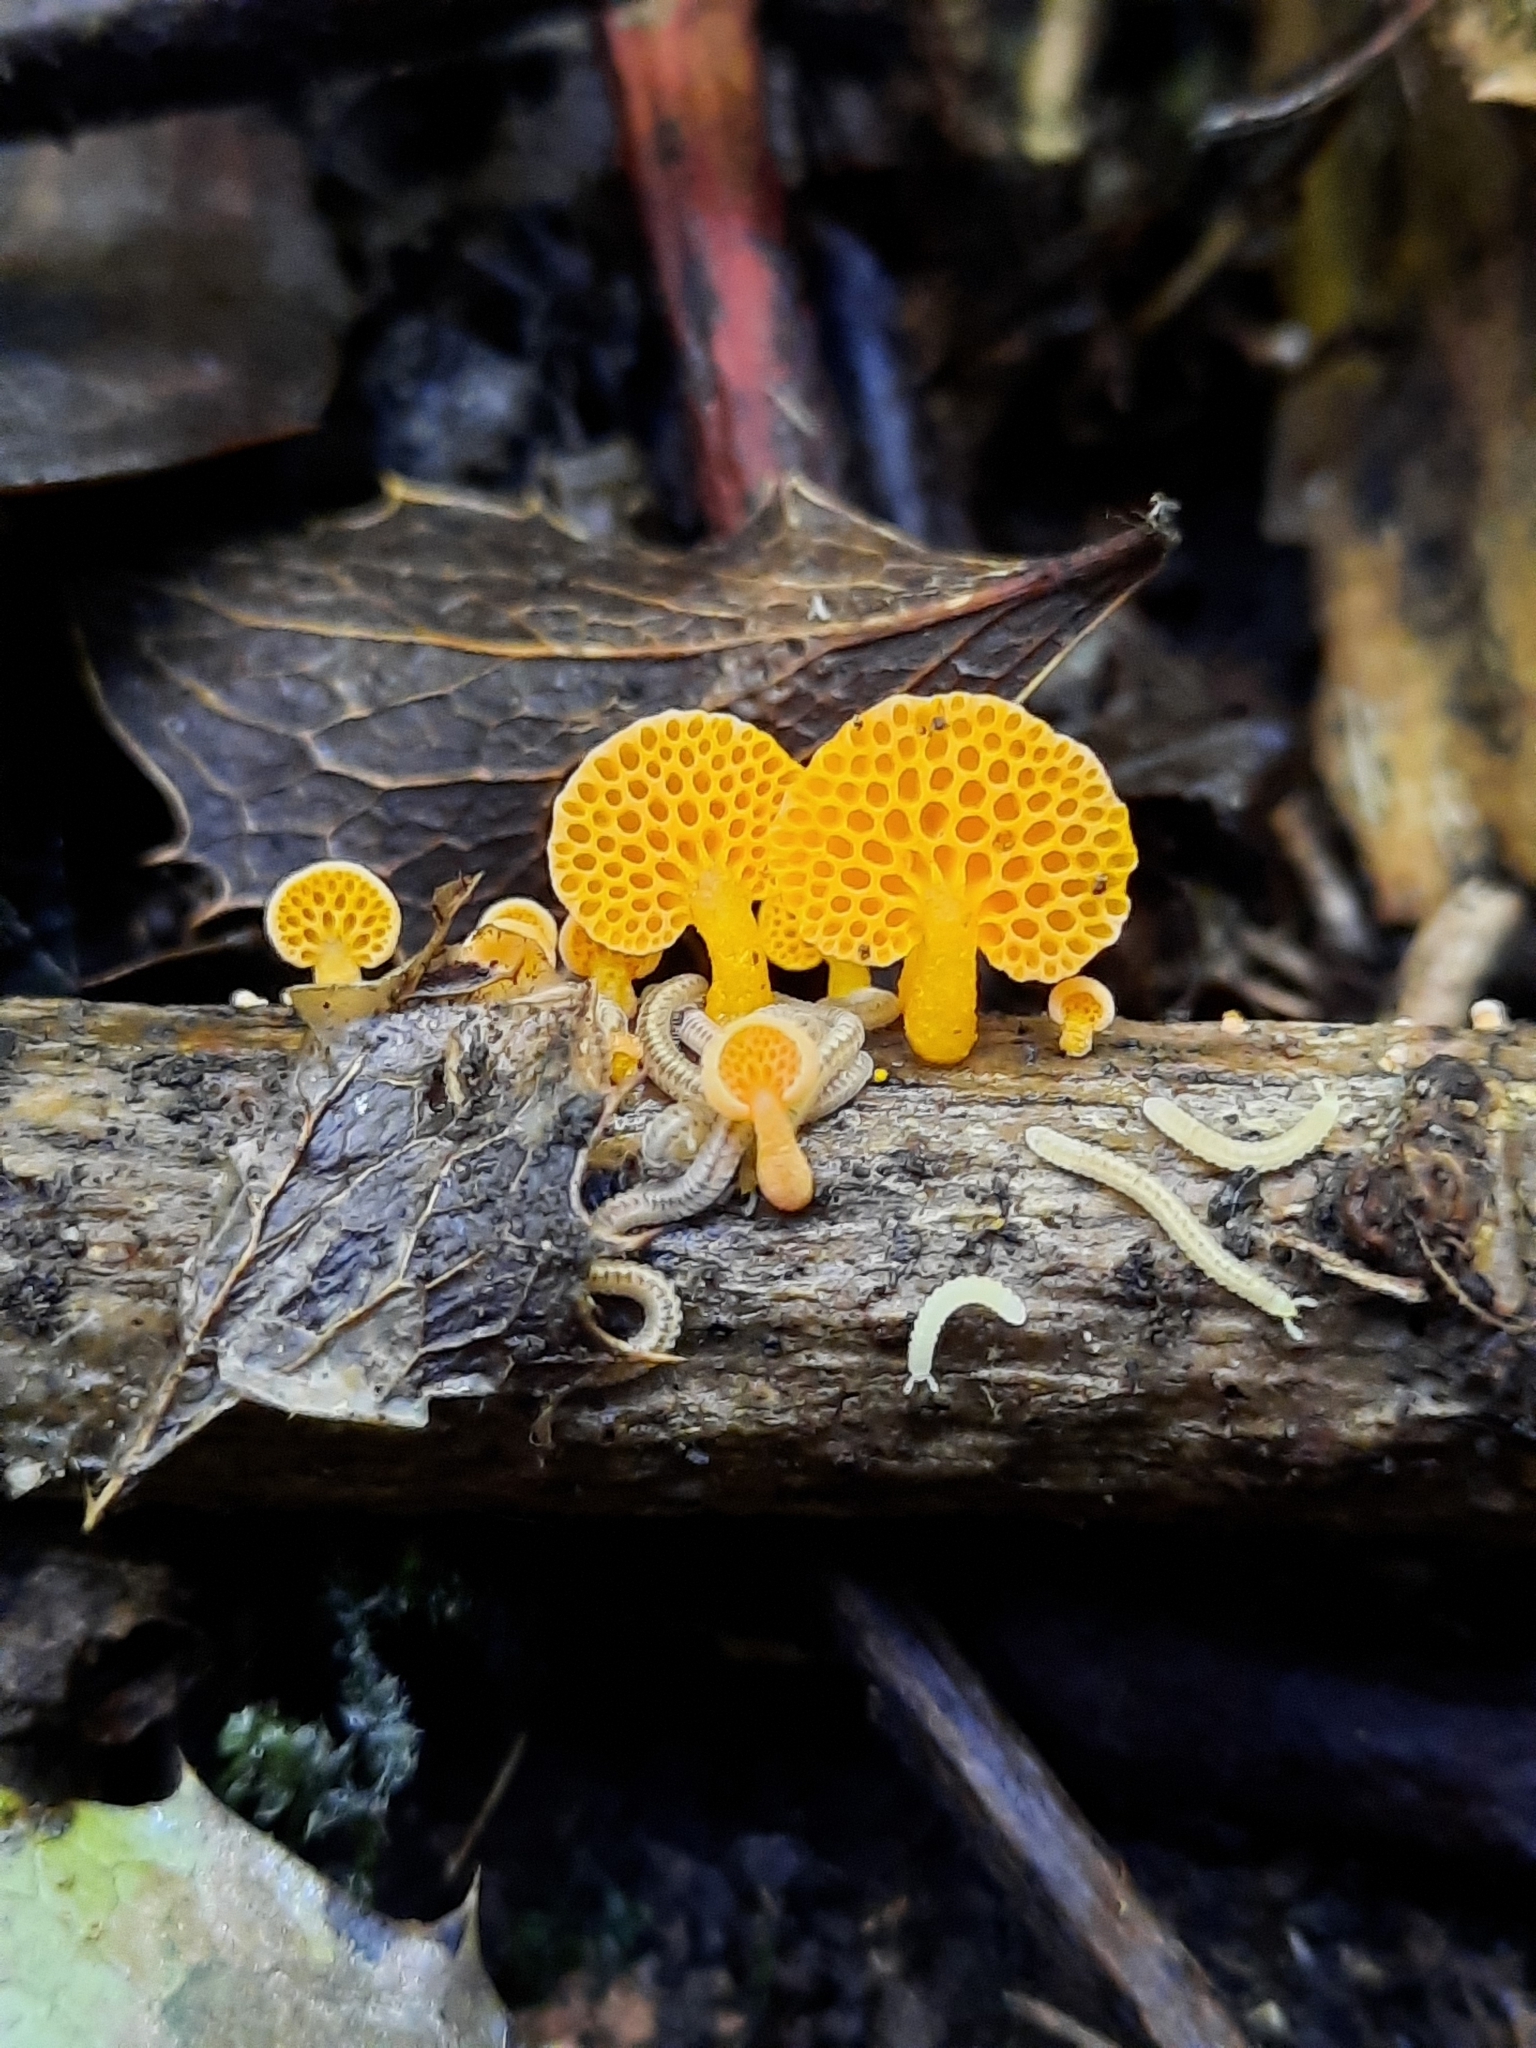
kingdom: Fungi
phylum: Basidiomycota
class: Agaricomycetes
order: Agaricales
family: Mycenaceae
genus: Favolaschia
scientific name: Favolaschia claudopus
